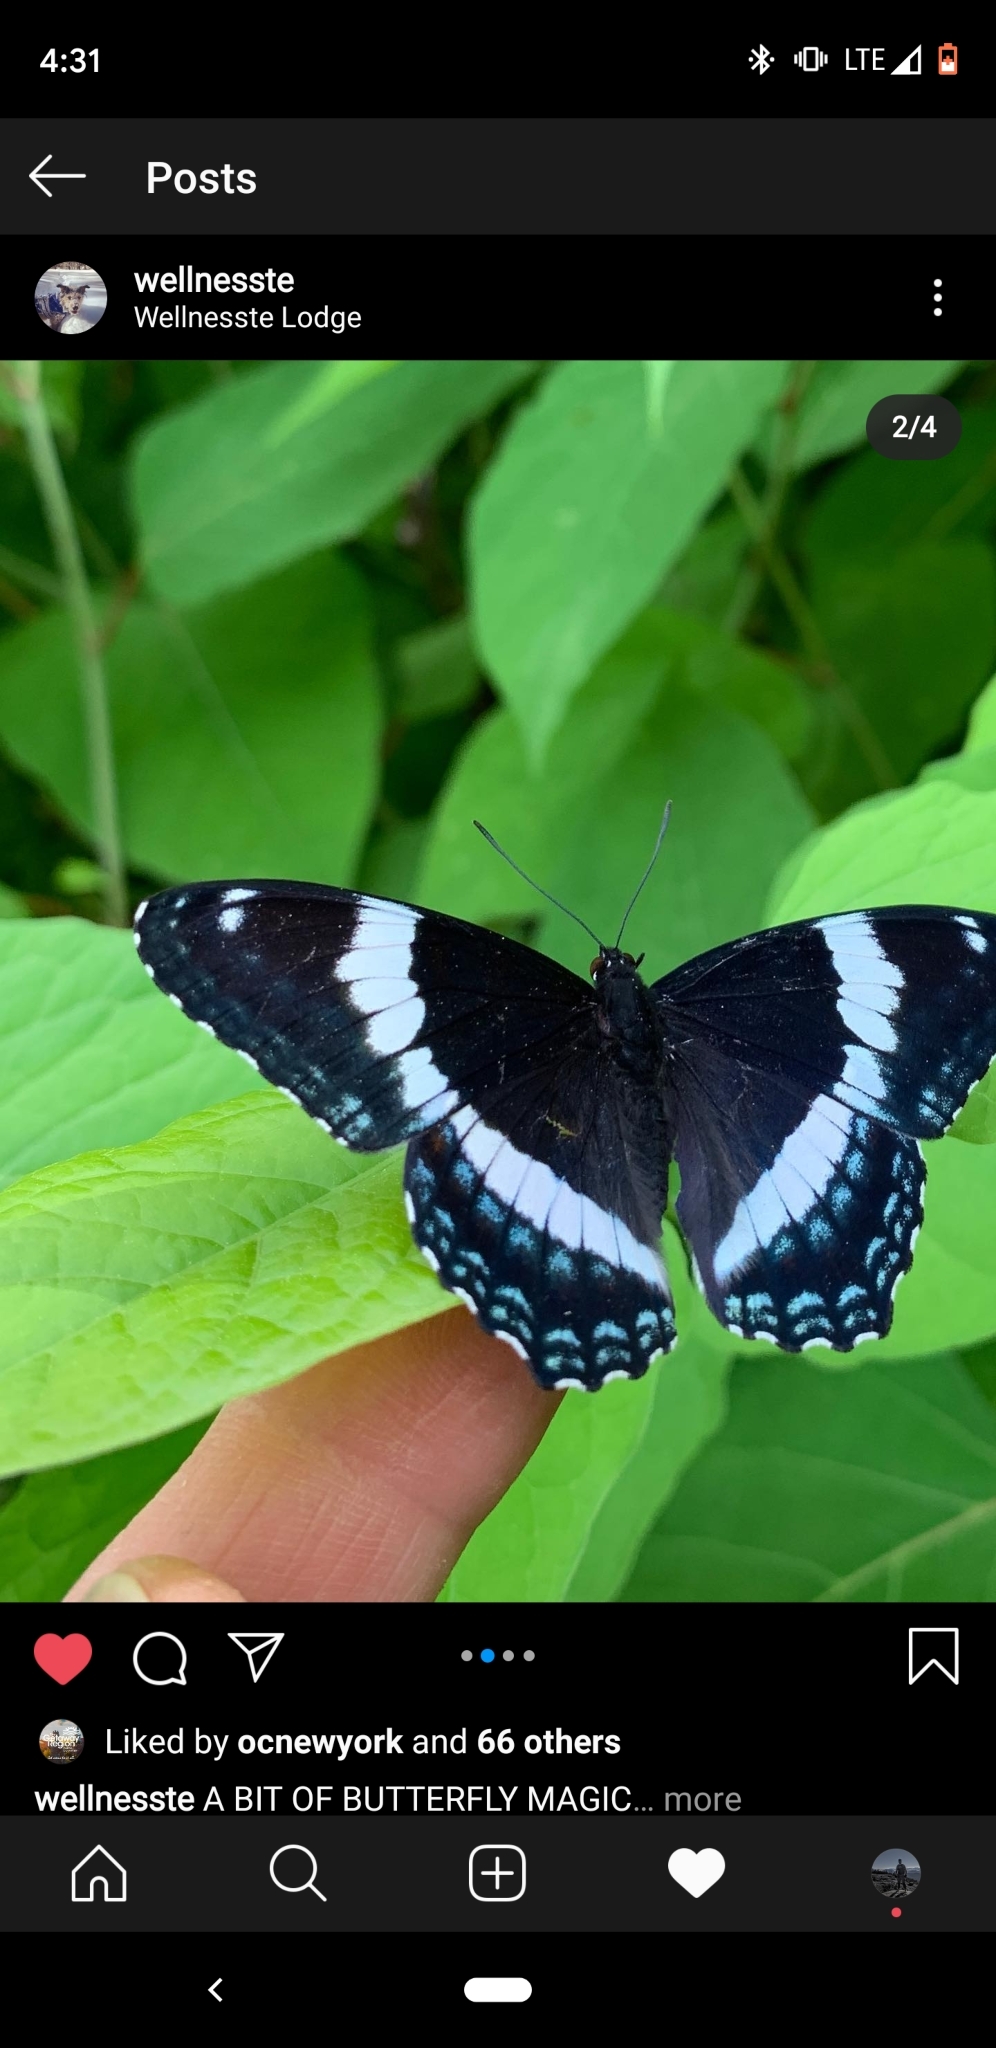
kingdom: Animalia
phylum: Arthropoda
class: Insecta
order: Lepidoptera
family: Nymphalidae
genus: Limenitis
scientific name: Limenitis arthemis
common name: Red-spotted admiral
